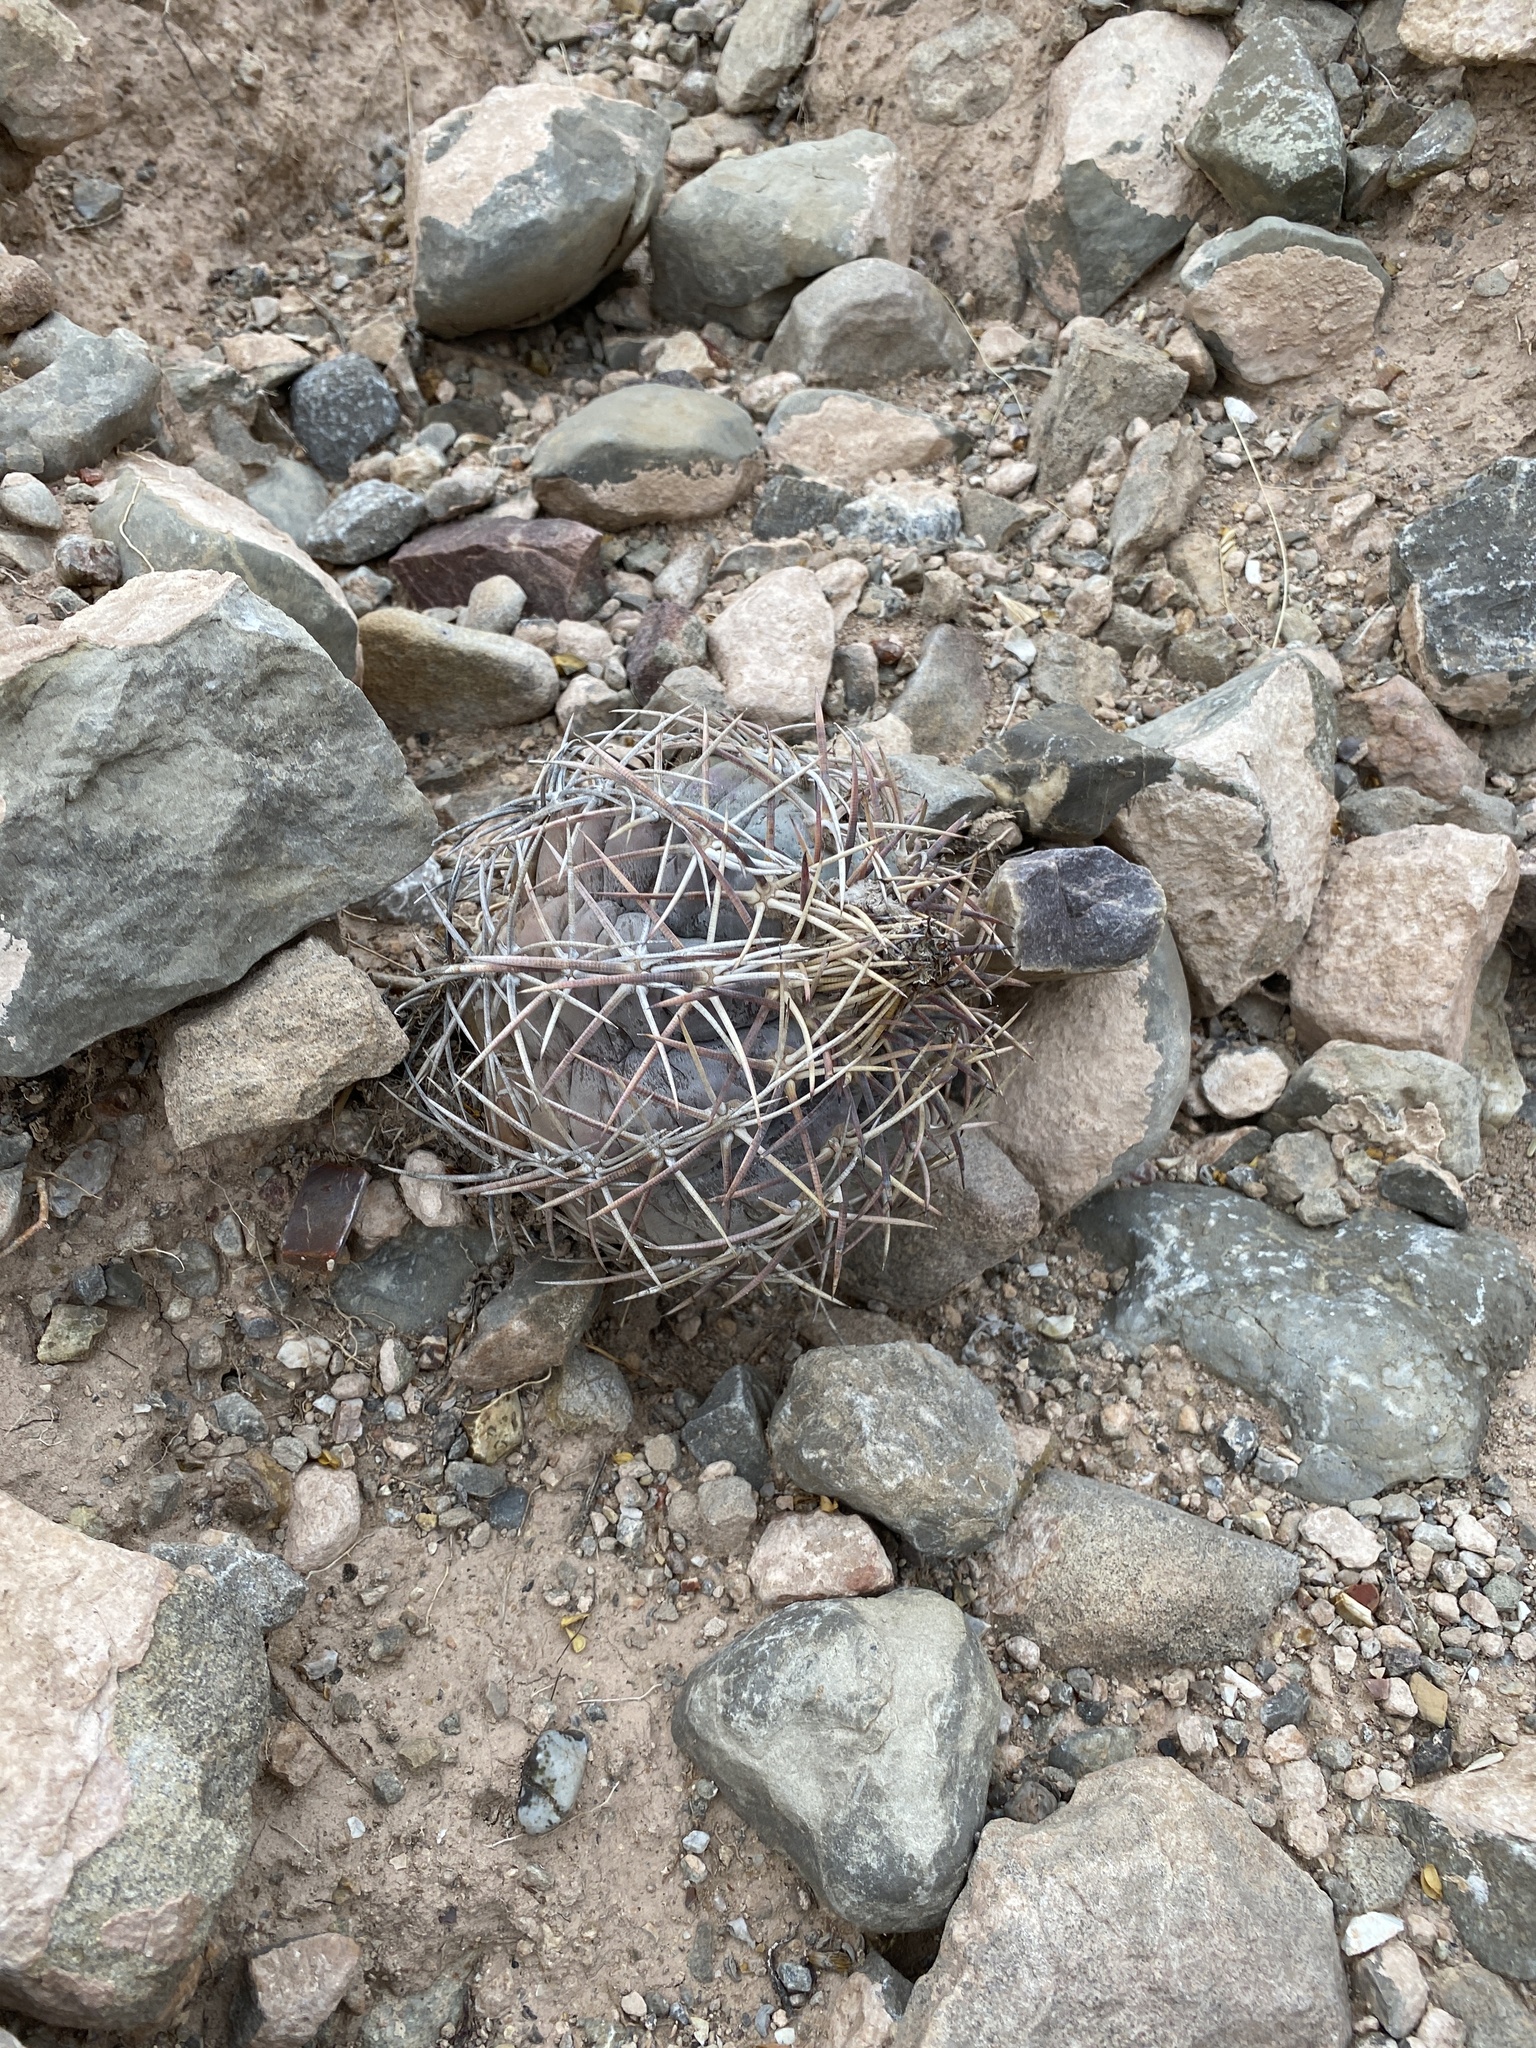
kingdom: Plantae
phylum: Tracheophyta
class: Magnoliopsida
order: Caryophyllales
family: Cactaceae
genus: Echinocactus
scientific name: Echinocactus horizonthalonius
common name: Devilshead
